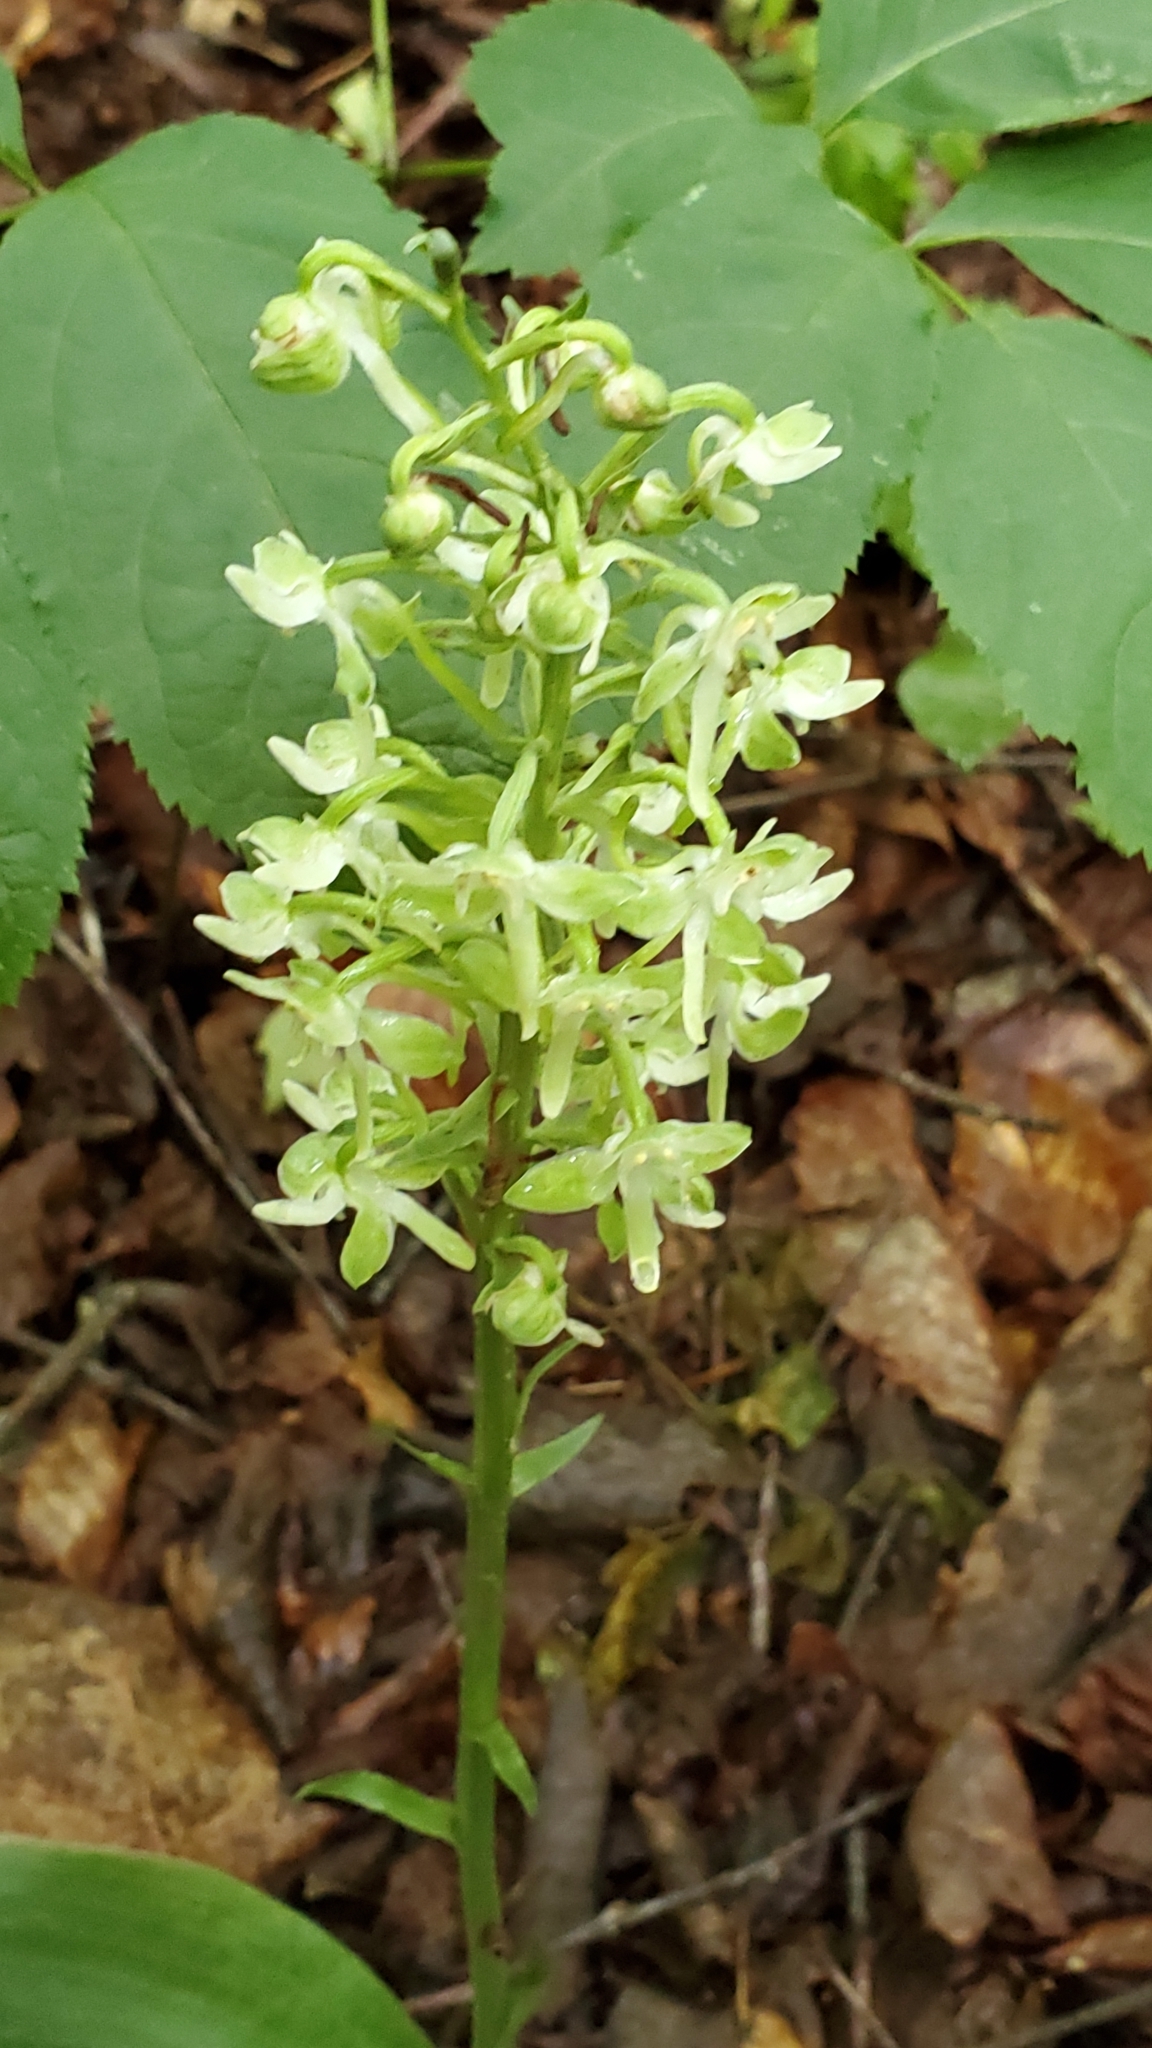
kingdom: Plantae
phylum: Tracheophyta
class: Liliopsida
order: Asparagales
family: Orchidaceae
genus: Platanthera
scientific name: Platanthera orbiculata
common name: Large round-leaved orchid
